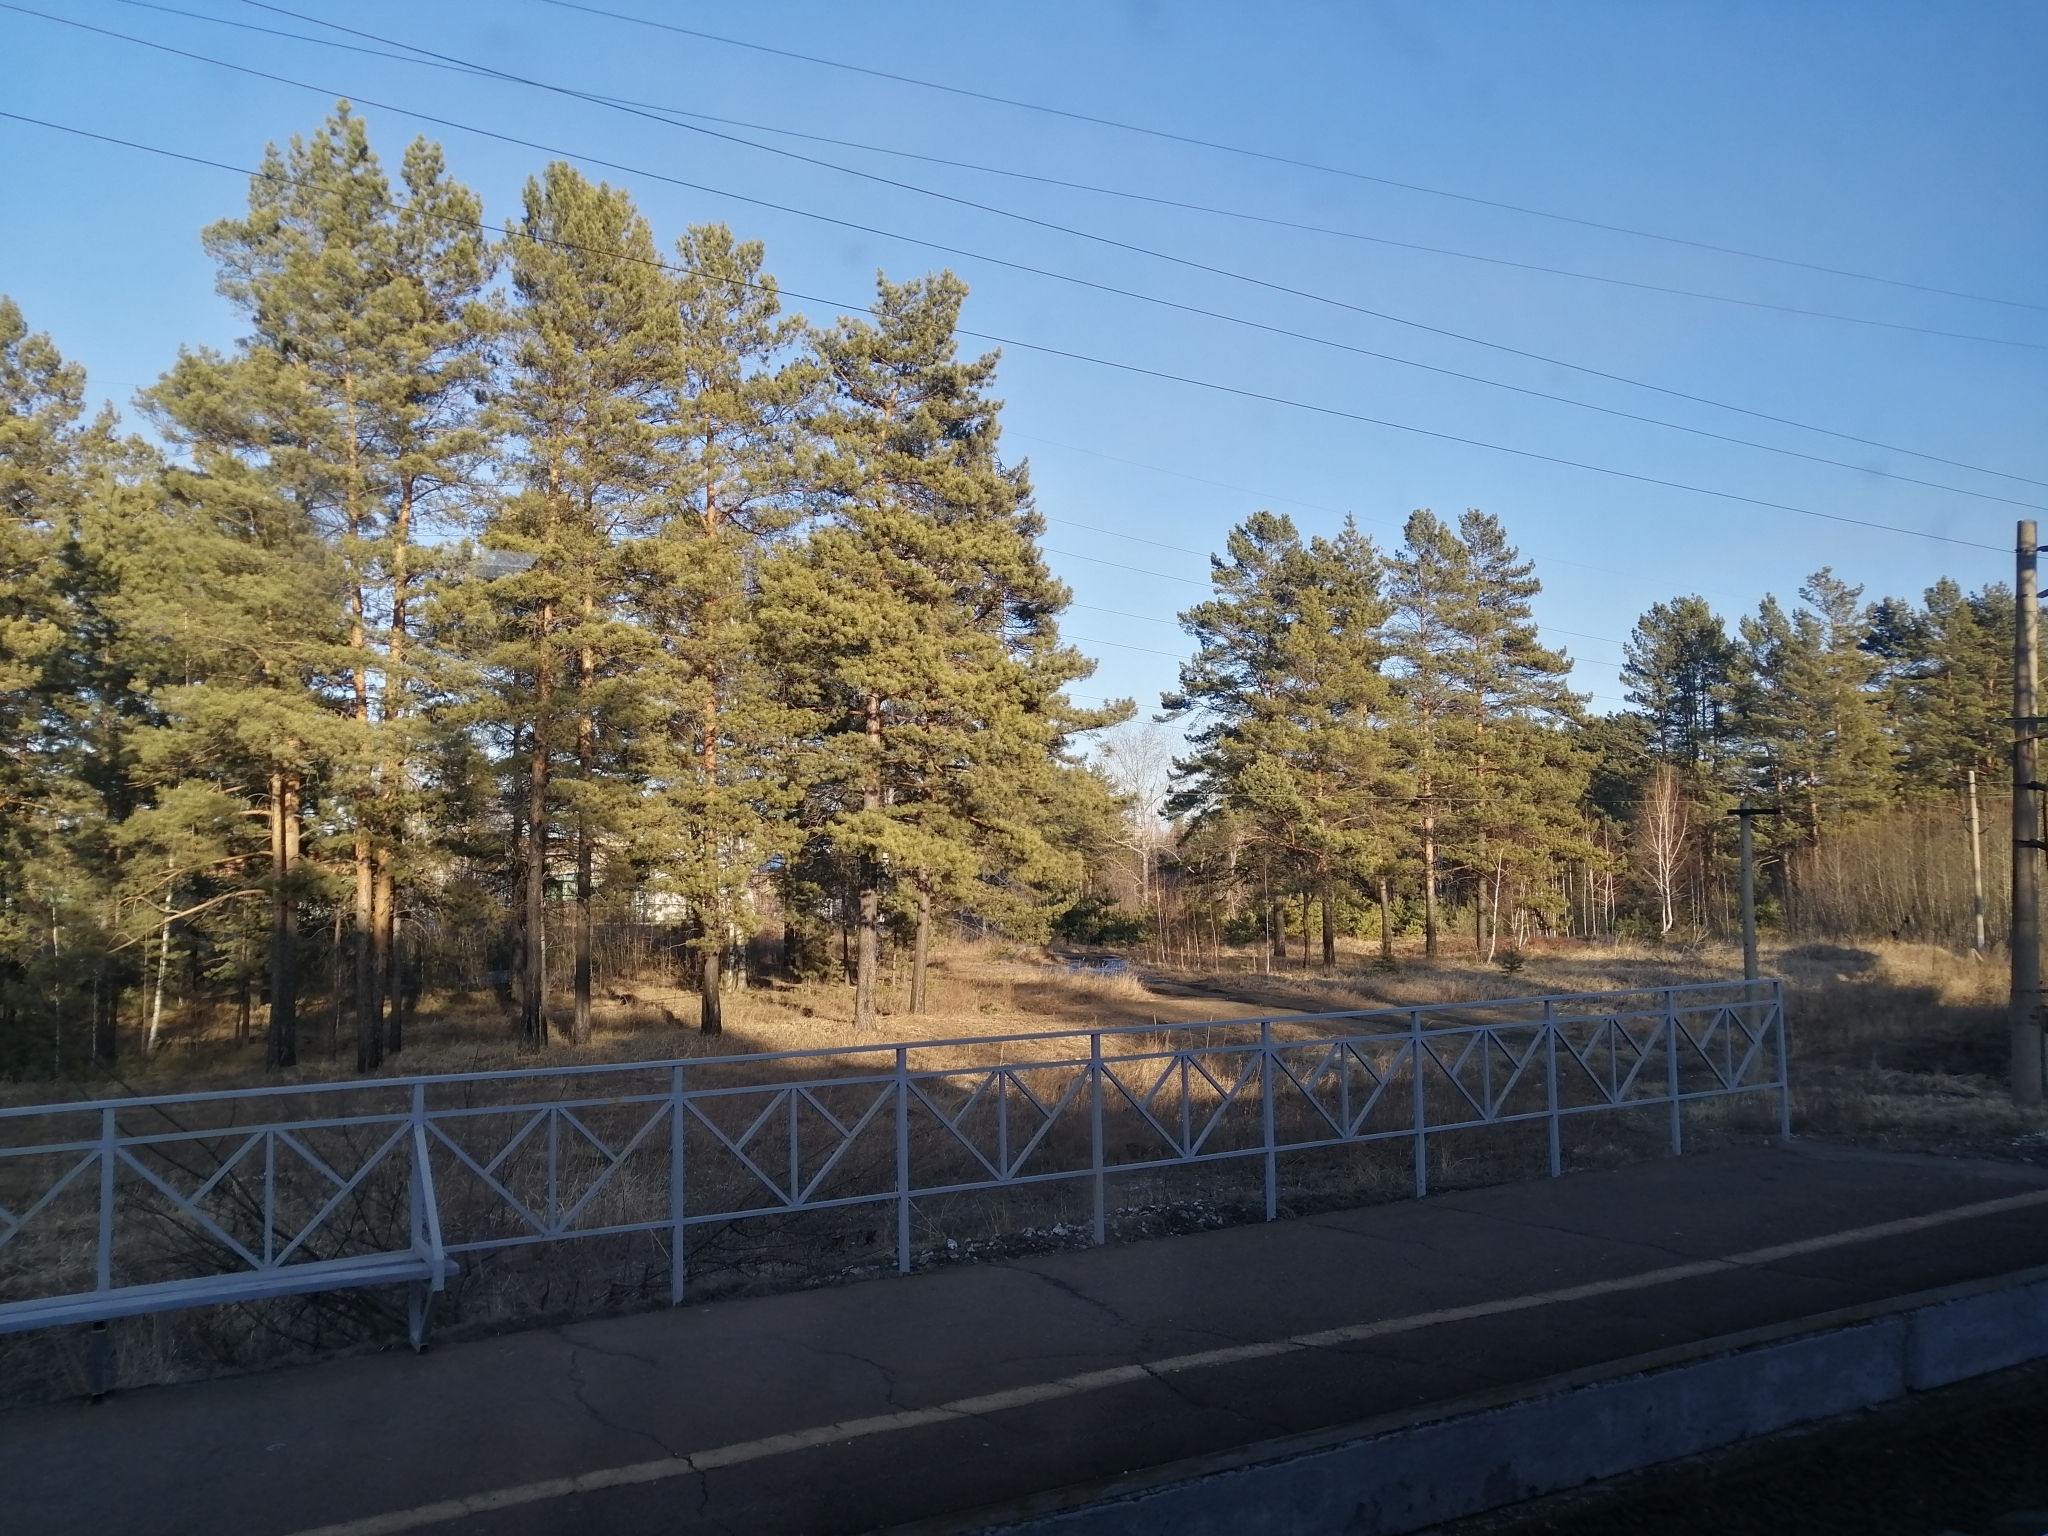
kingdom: Plantae
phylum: Tracheophyta
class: Pinopsida
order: Pinales
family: Pinaceae
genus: Pinus
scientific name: Pinus sylvestris
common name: Scots pine
